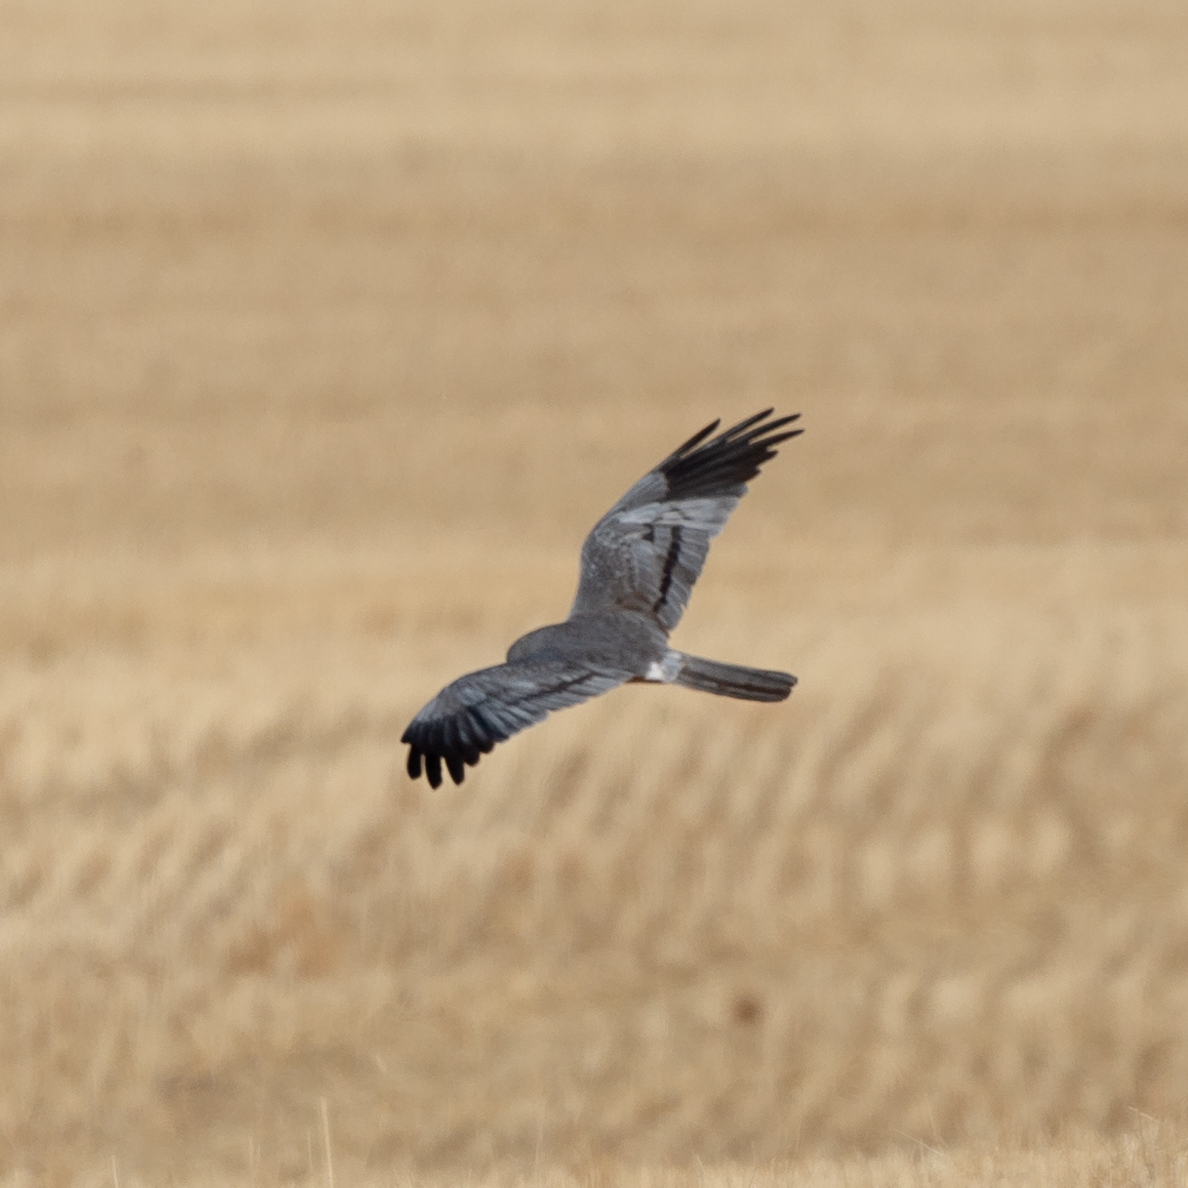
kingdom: Animalia
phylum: Chordata
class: Aves
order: Accipitriformes
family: Accipitridae
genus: Circus
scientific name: Circus pygargus
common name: Montagu's harrier
